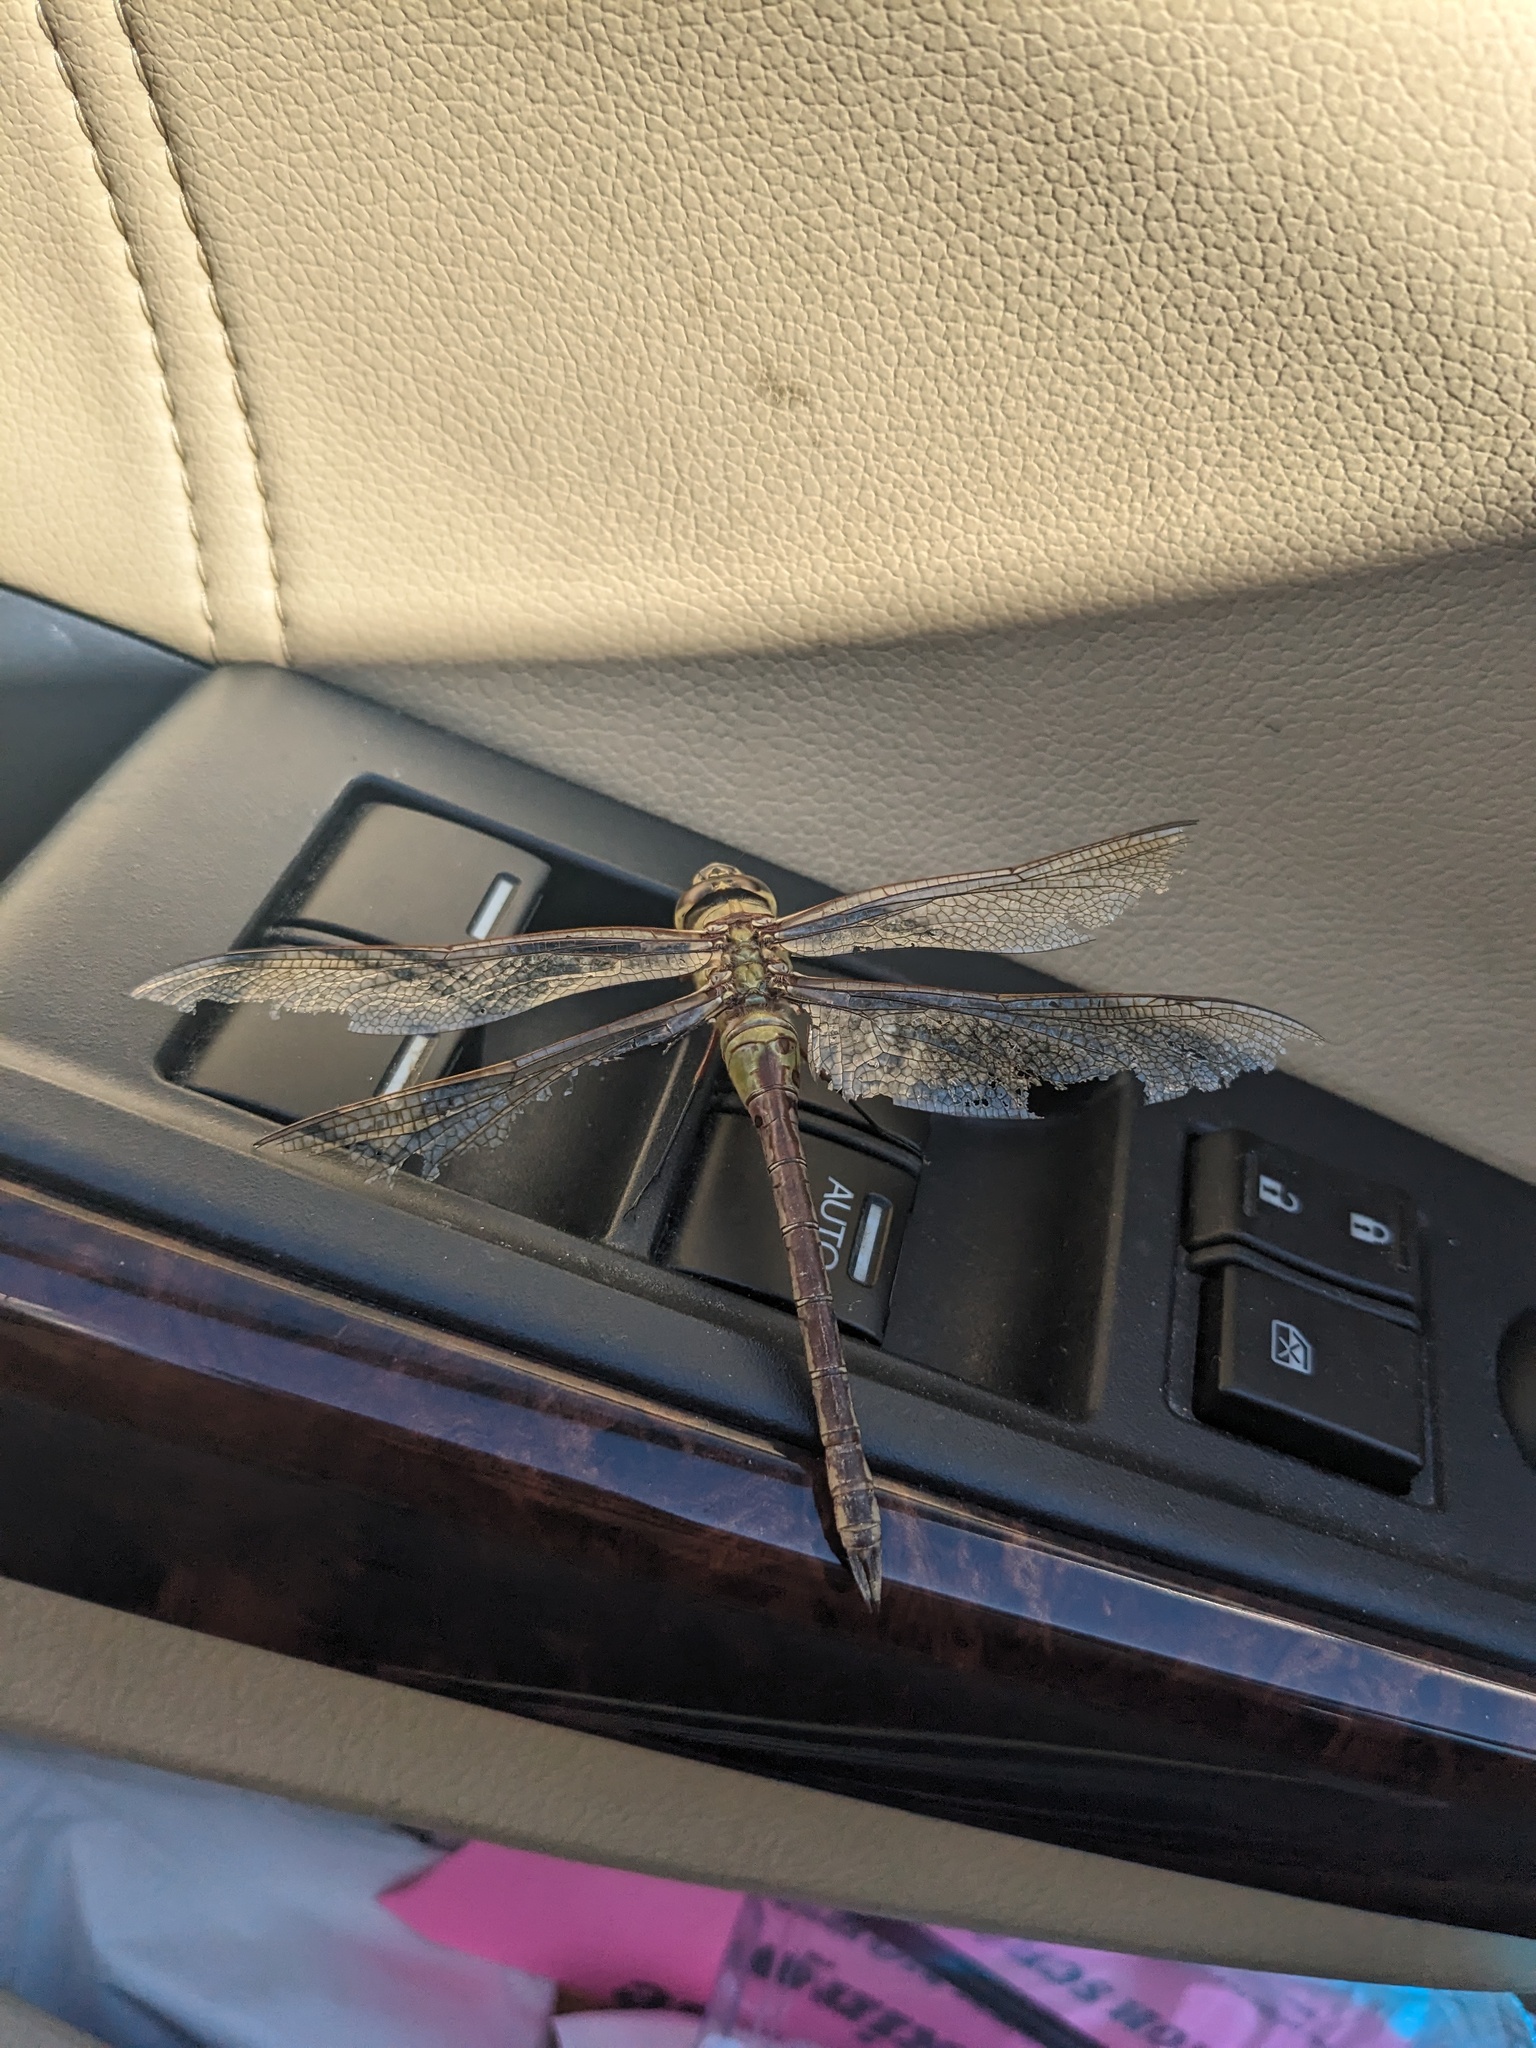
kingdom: Animalia
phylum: Arthropoda
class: Insecta
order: Odonata
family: Aeshnidae
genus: Anax
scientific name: Anax junius
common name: Common green darner
